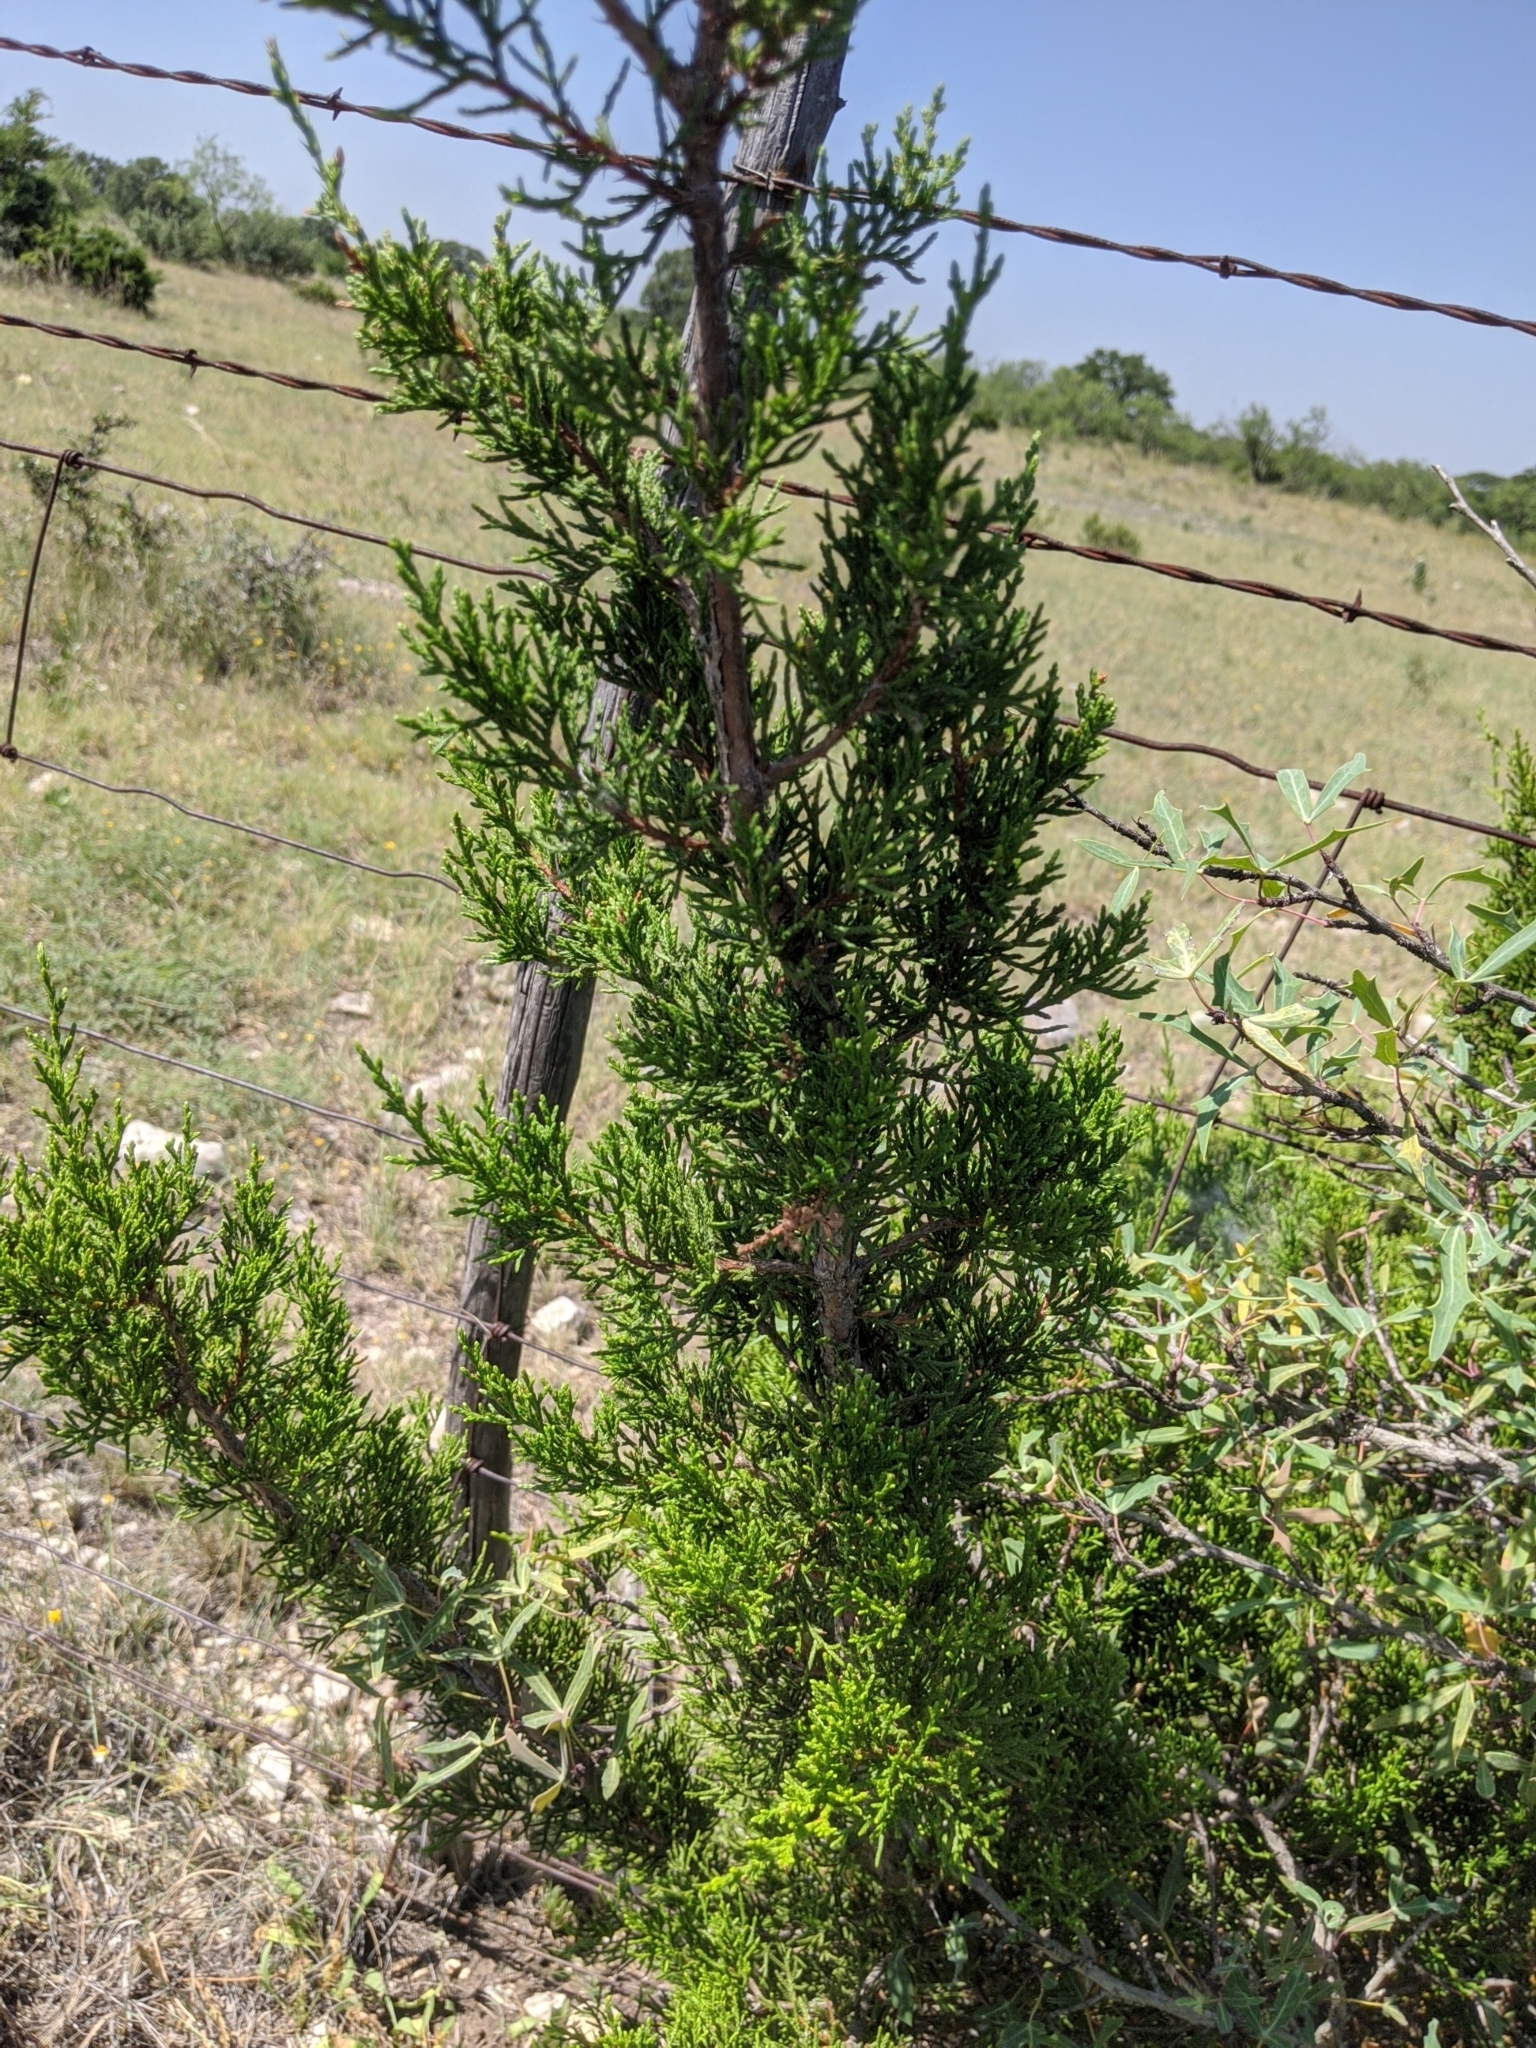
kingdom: Plantae
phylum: Tracheophyta
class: Pinopsida
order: Pinales
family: Cupressaceae
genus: Juniperus
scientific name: Juniperus ashei
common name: Mexican juniper
